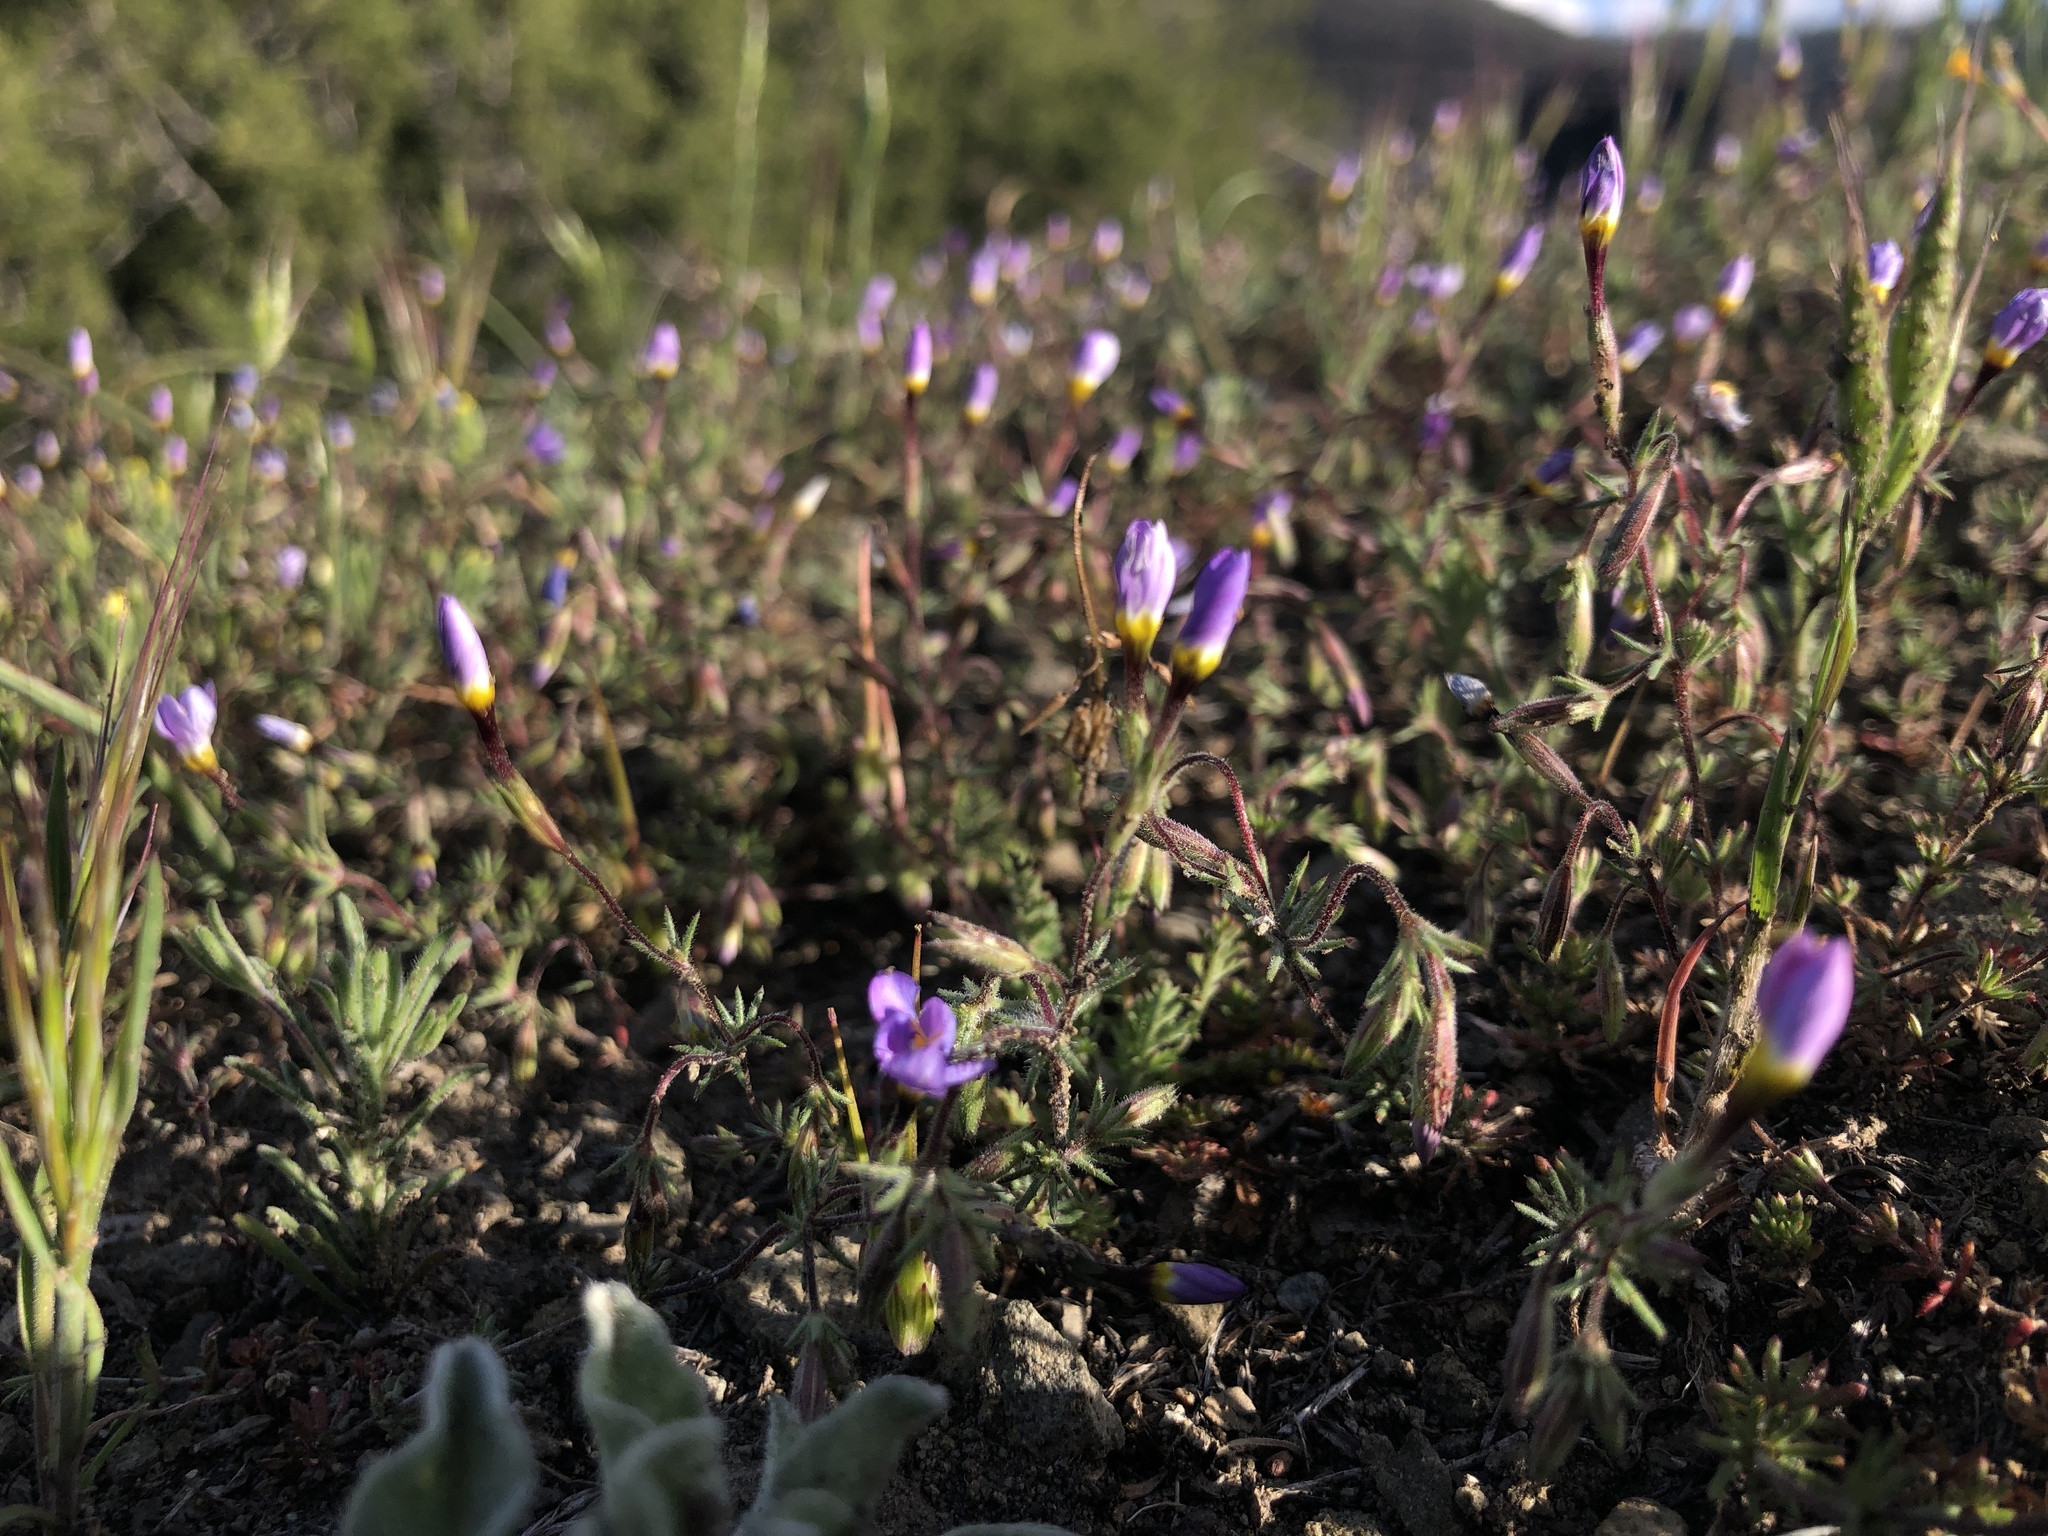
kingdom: Plantae
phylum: Tracheophyta
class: Magnoliopsida
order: Ericales
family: Polemoniaceae
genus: Leptosiphon
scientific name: Leptosiphon ambiguus
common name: Serpentine linanthus
